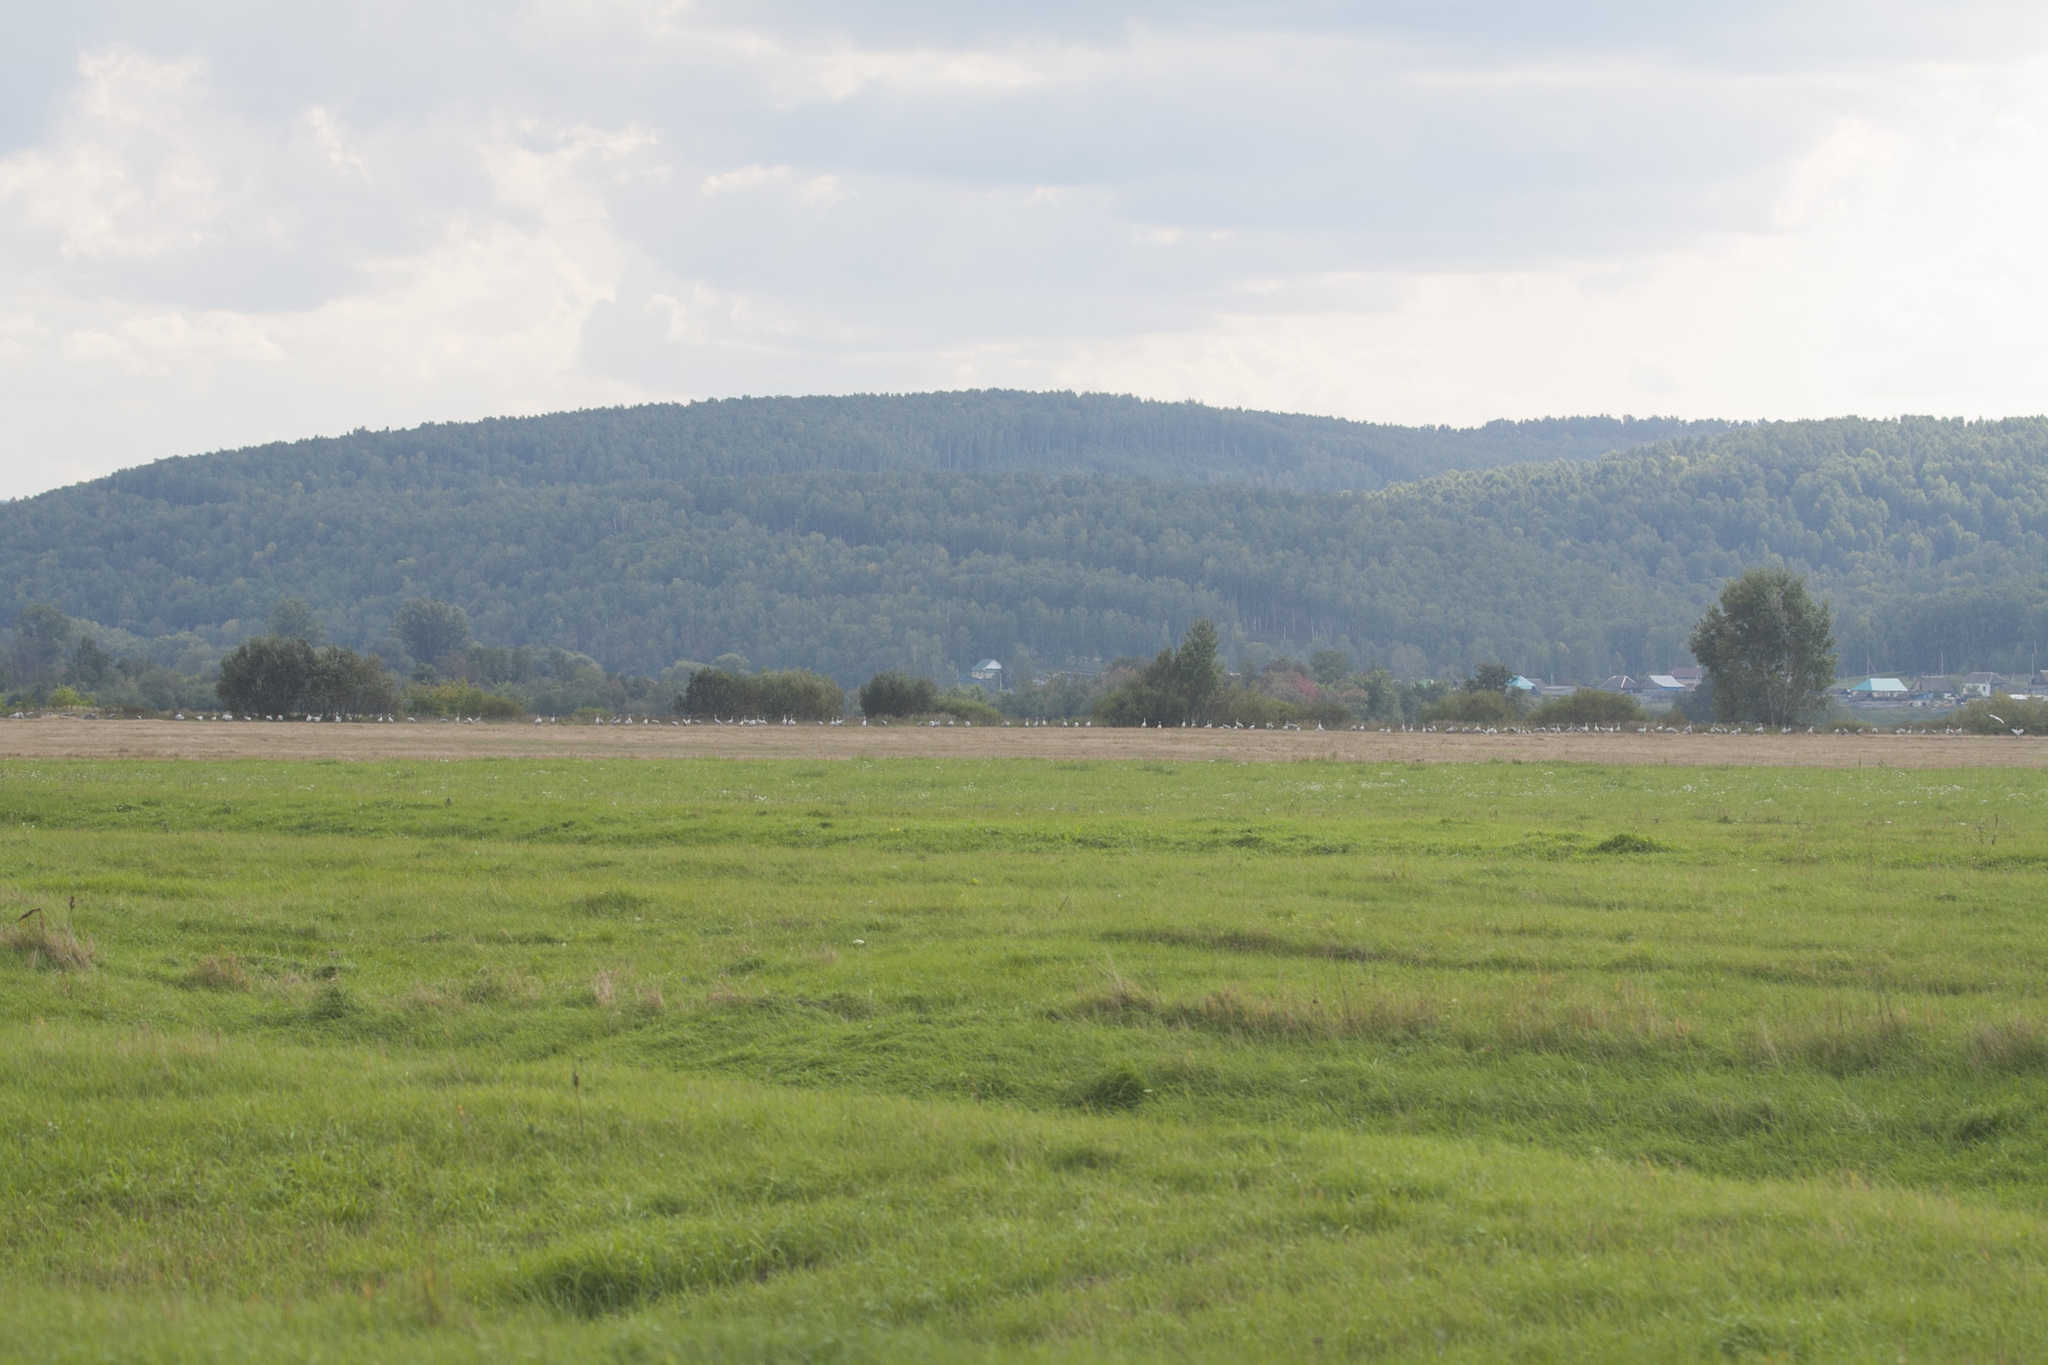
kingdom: Animalia
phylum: Chordata
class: Aves
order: Gruiformes
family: Gruidae
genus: Grus
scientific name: Grus grus
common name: Common crane
